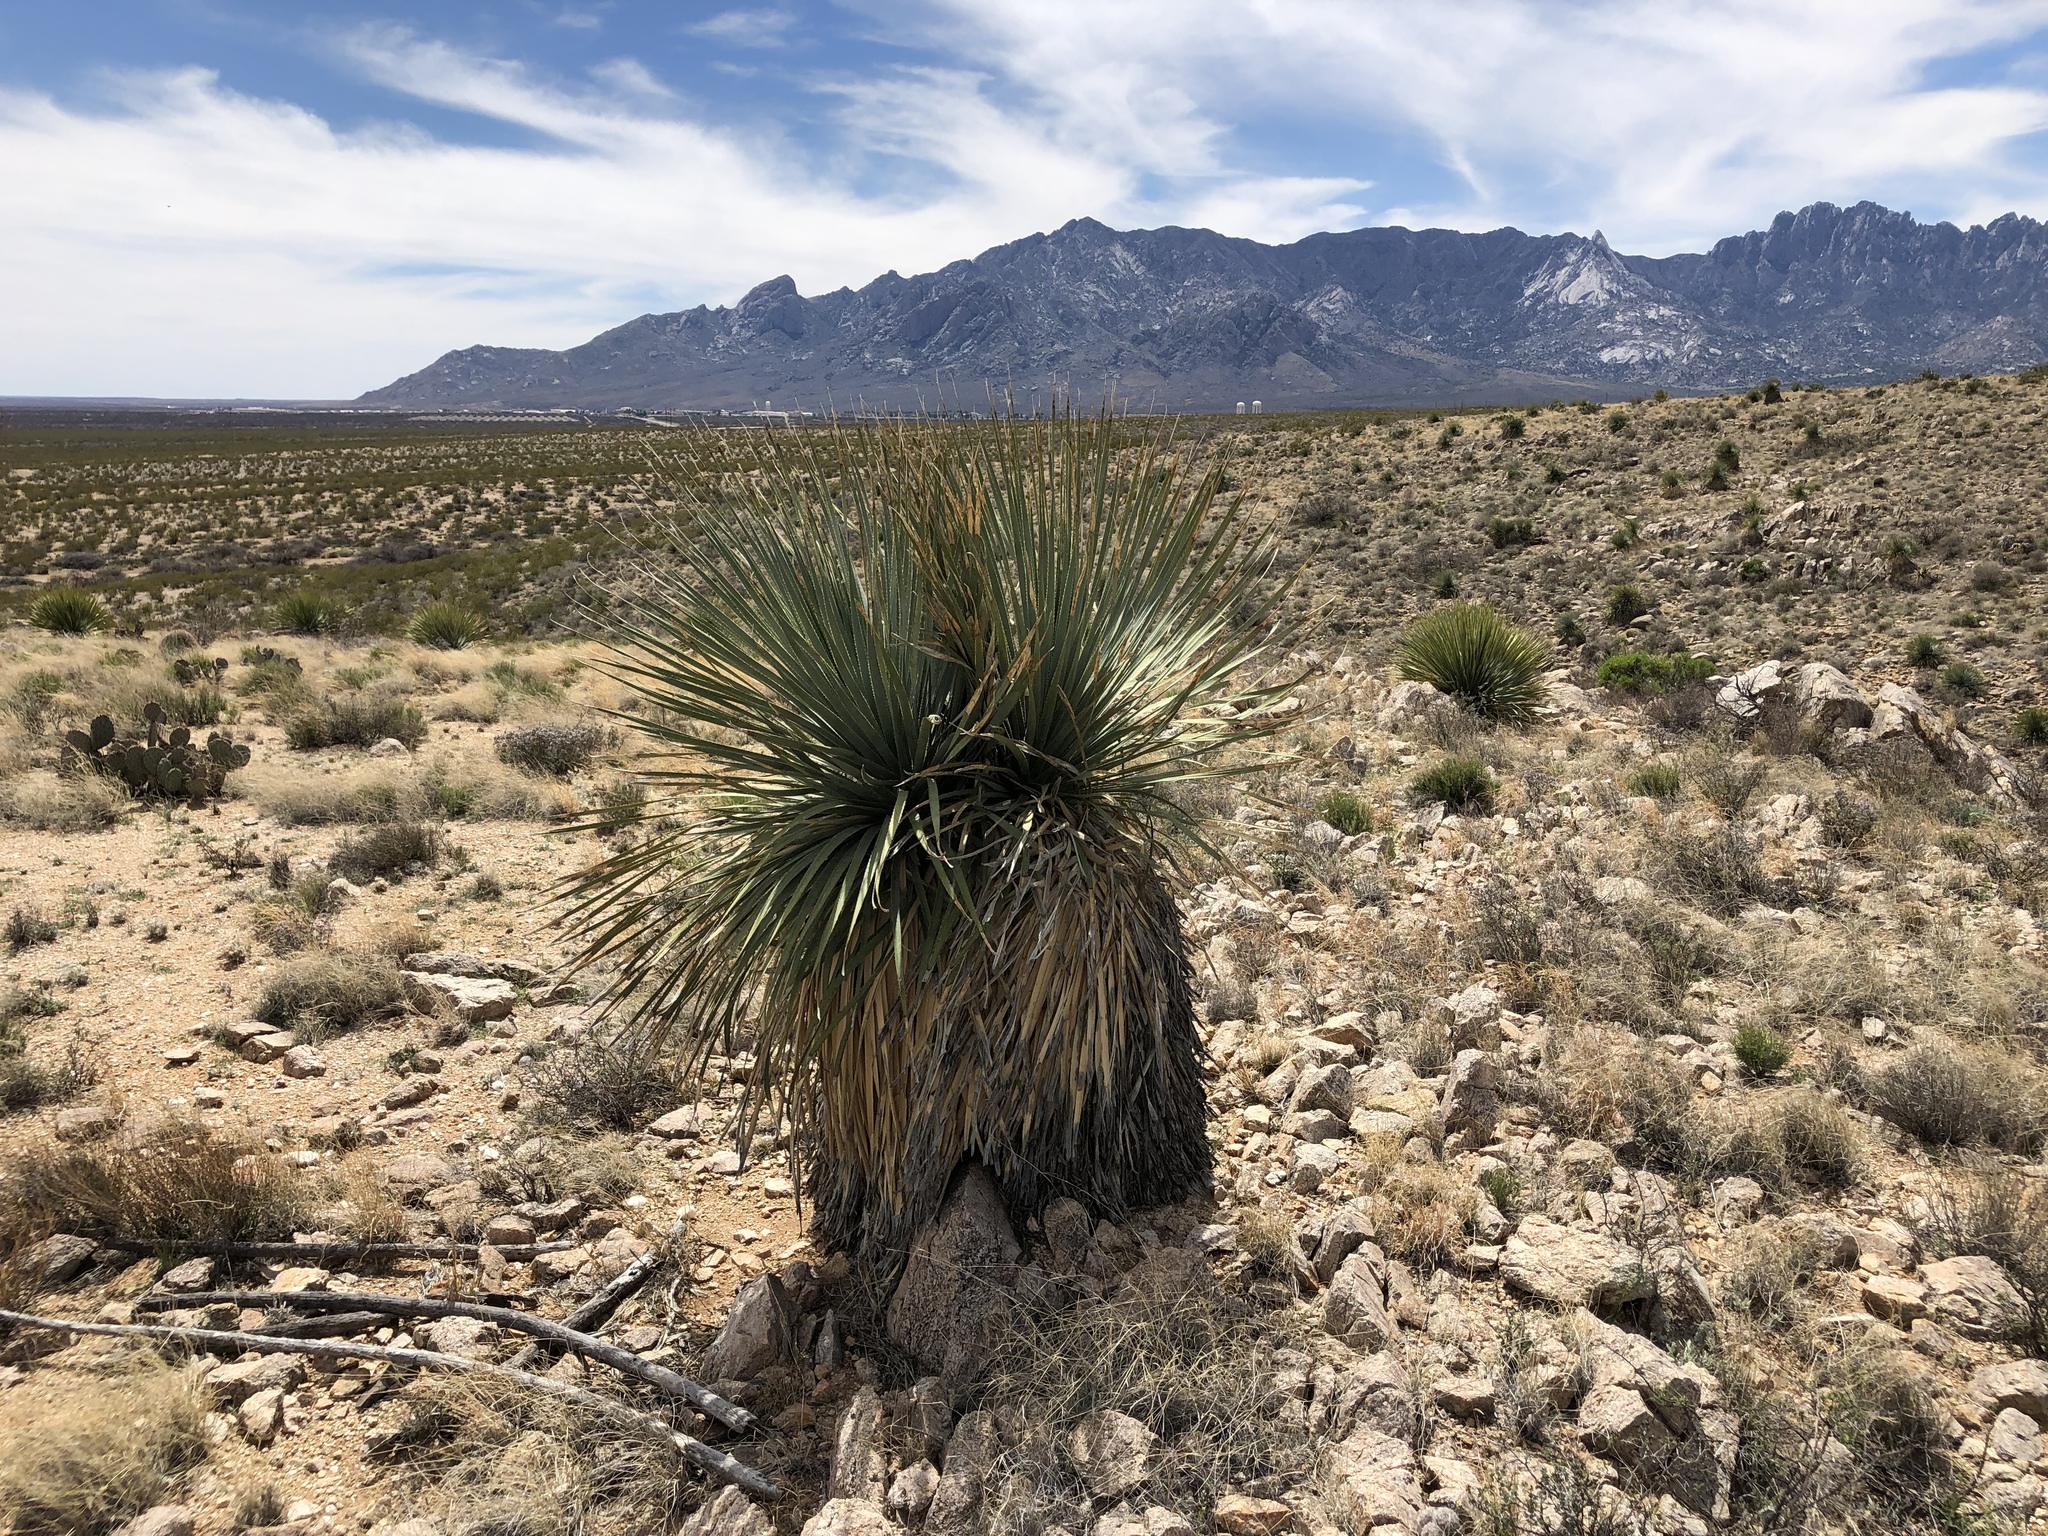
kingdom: Plantae
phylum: Tracheophyta
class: Liliopsida
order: Asparagales
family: Asparagaceae
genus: Dasylirion
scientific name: Dasylirion wheeleri
